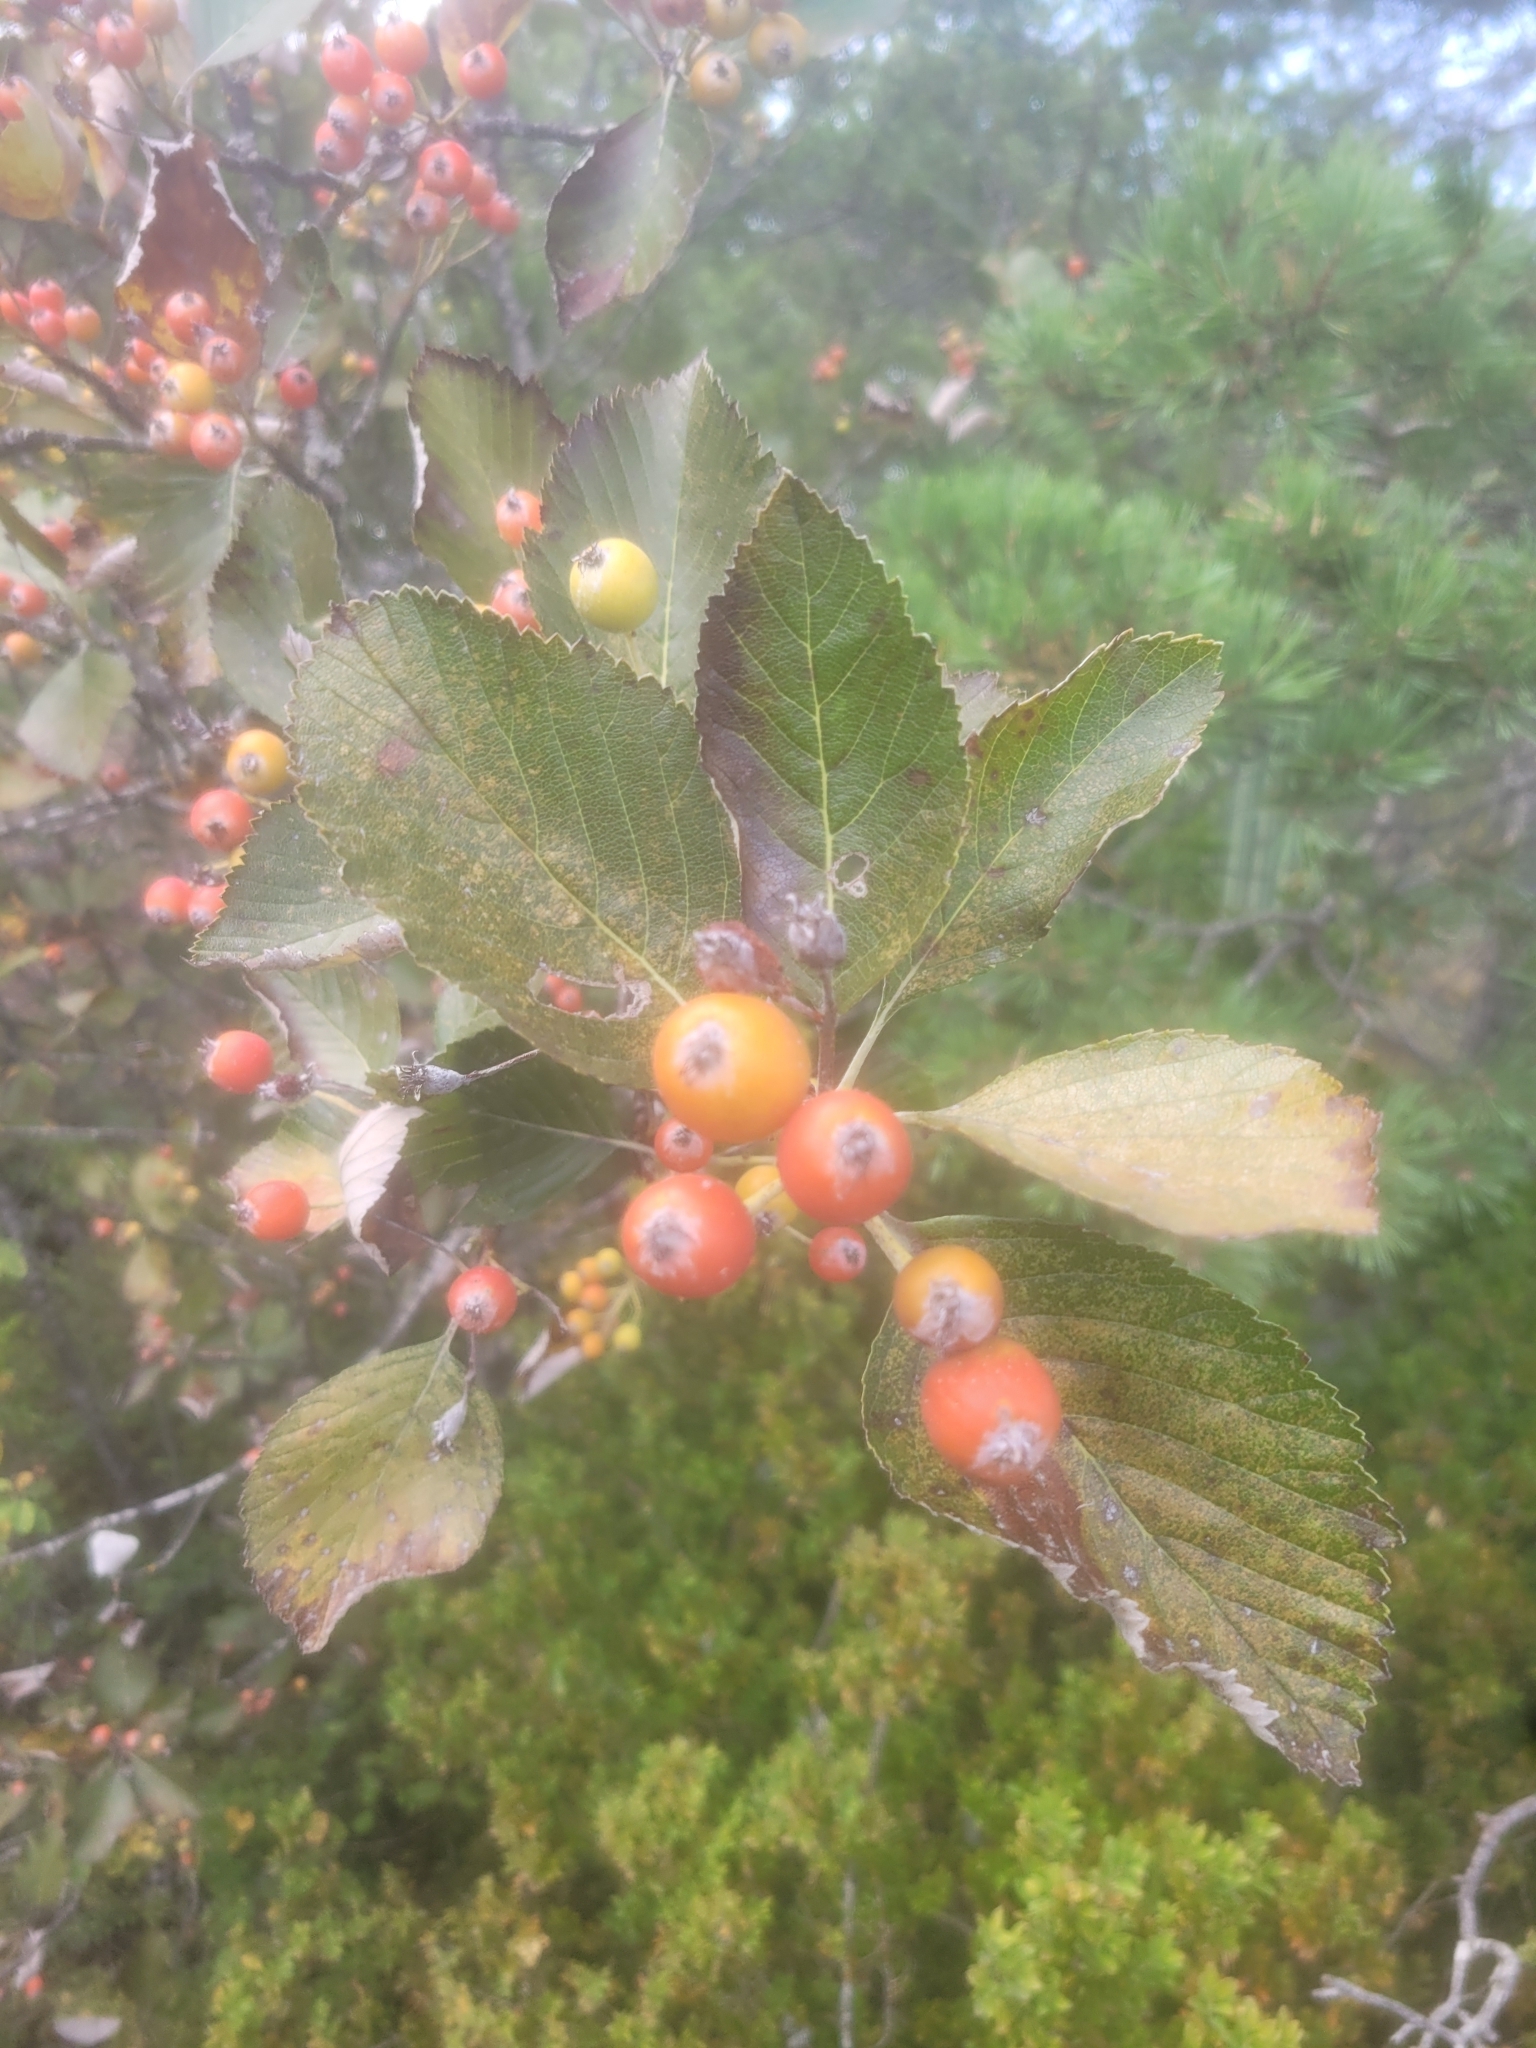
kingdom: Plantae
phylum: Tracheophyta
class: Magnoliopsida
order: Rosales
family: Rosaceae
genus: Aria
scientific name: Aria edulis
